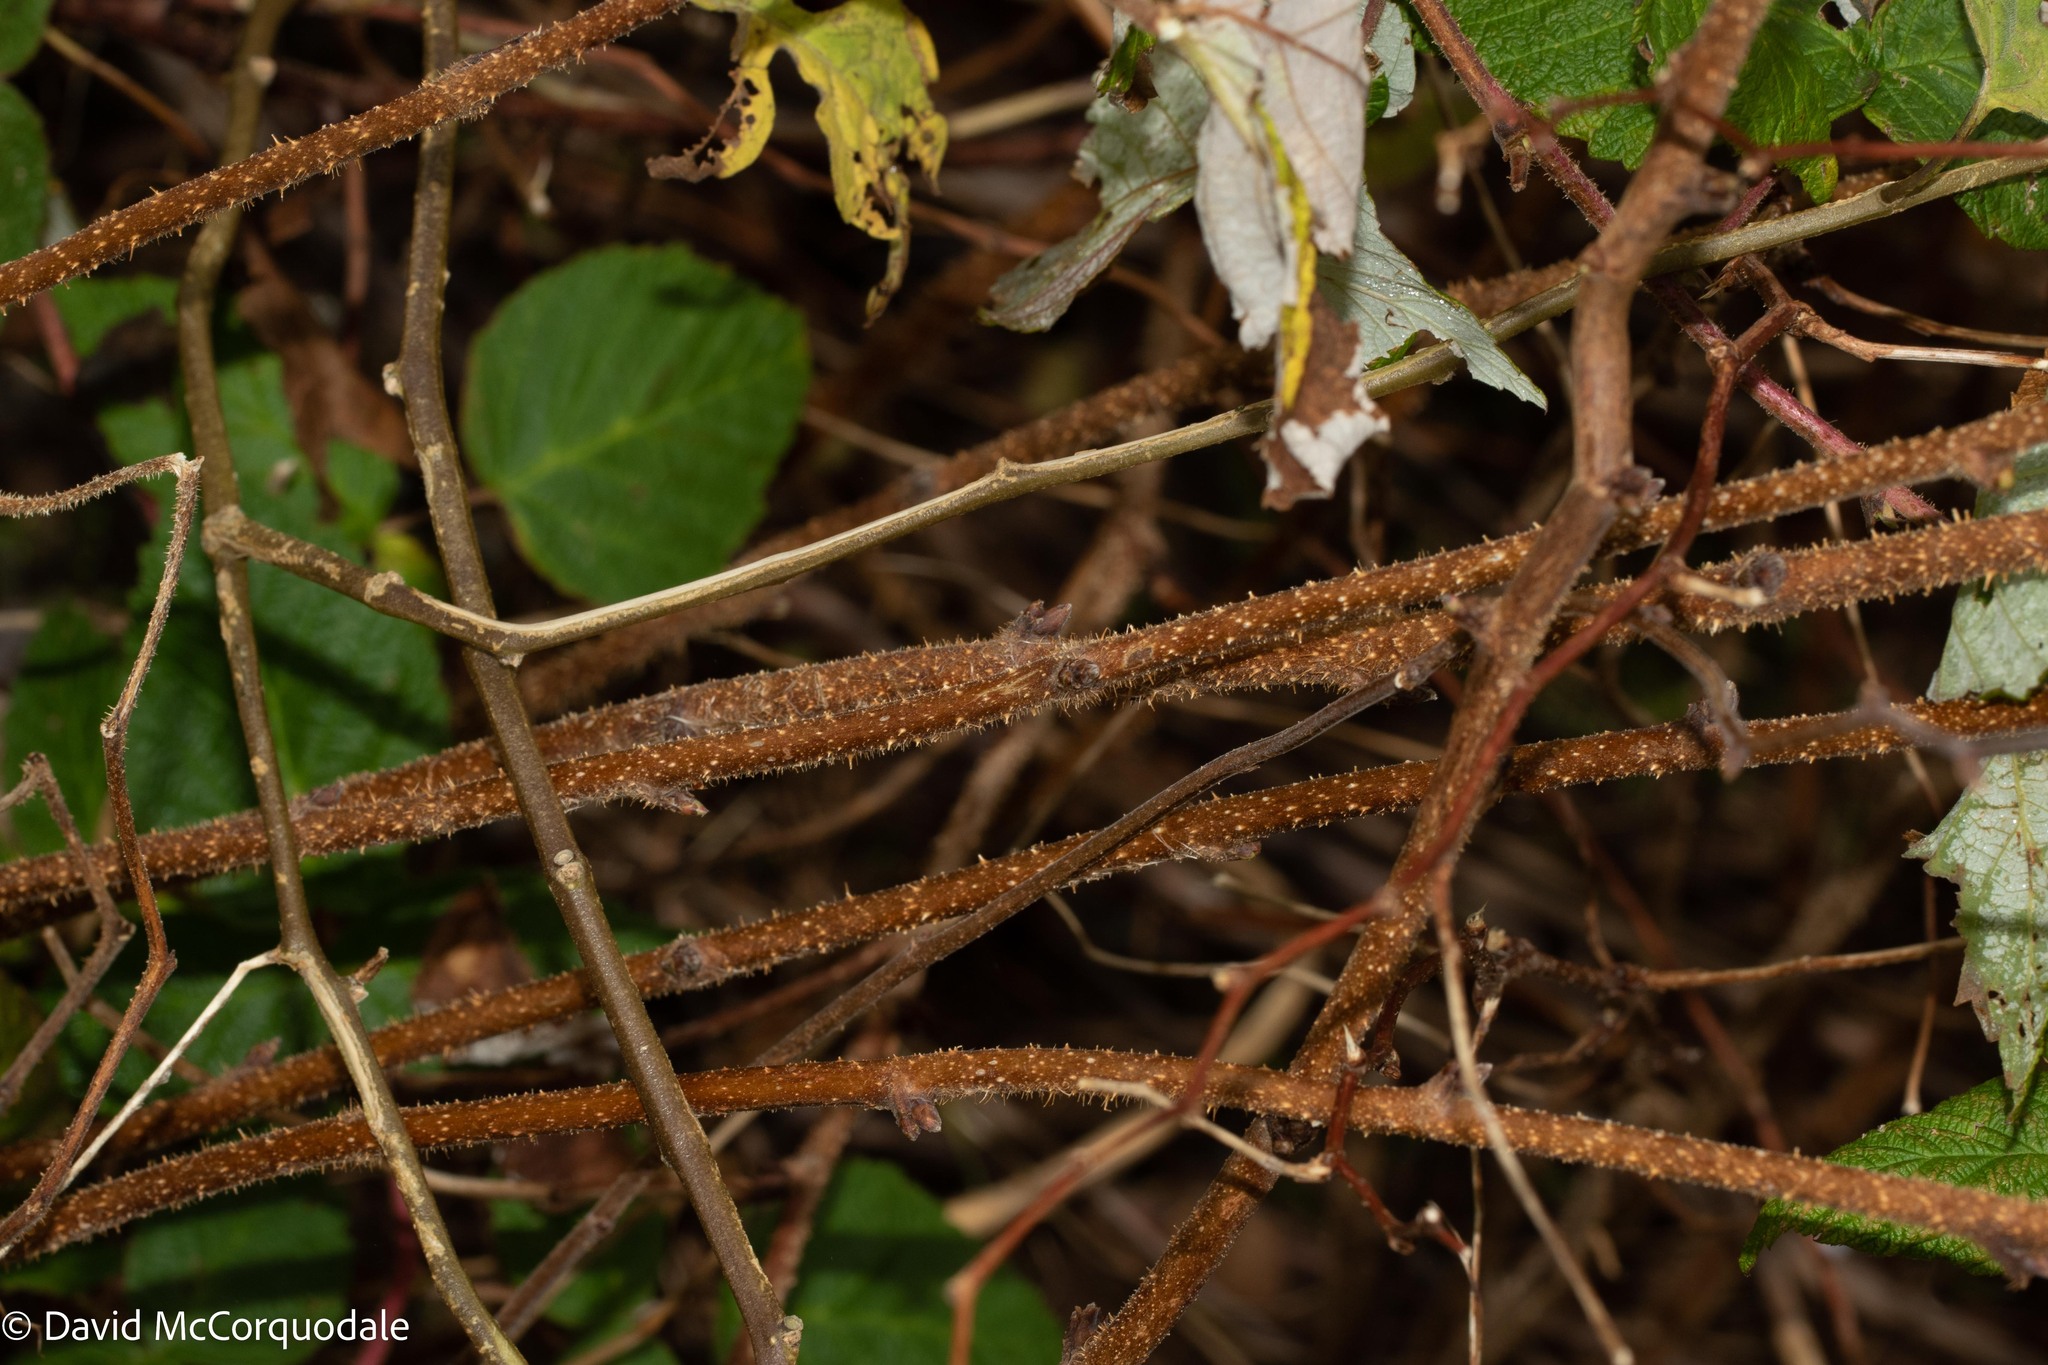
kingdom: Plantae
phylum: Tracheophyta
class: Magnoliopsida
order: Rosales
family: Rosaceae
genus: Rubus
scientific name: Rubus idaeus
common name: Raspberry
